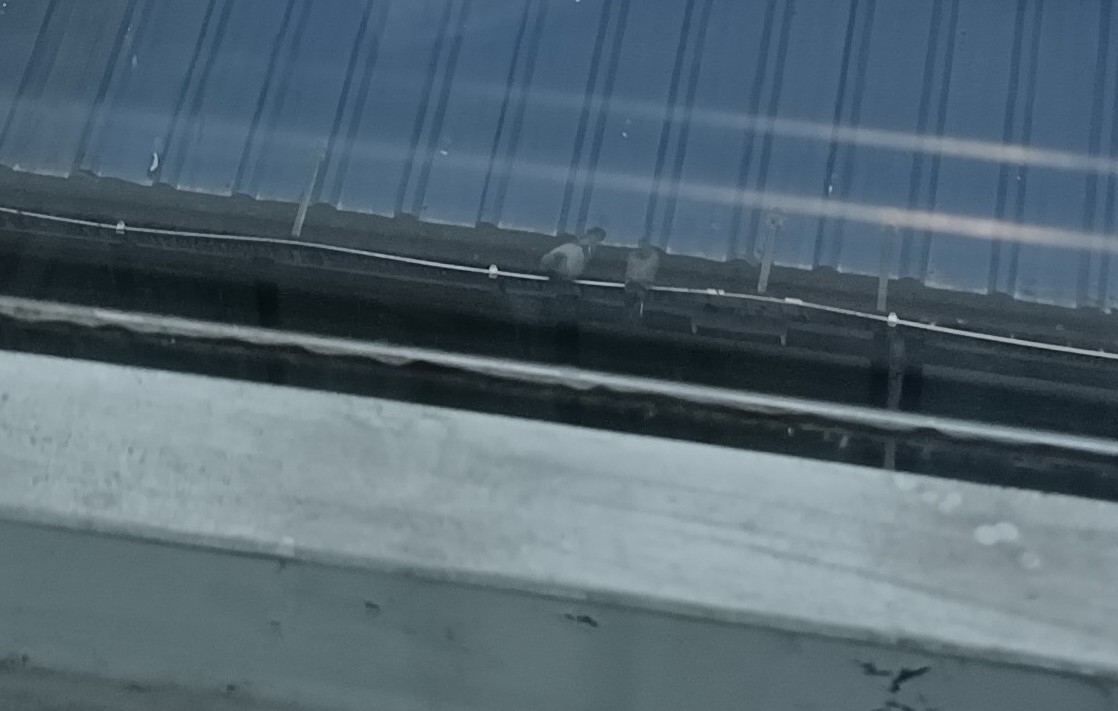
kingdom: Animalia
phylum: Chordata
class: Aves
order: Columbiformes
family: Columbidae
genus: Columba
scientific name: Columba livia
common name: Rock pigeon
